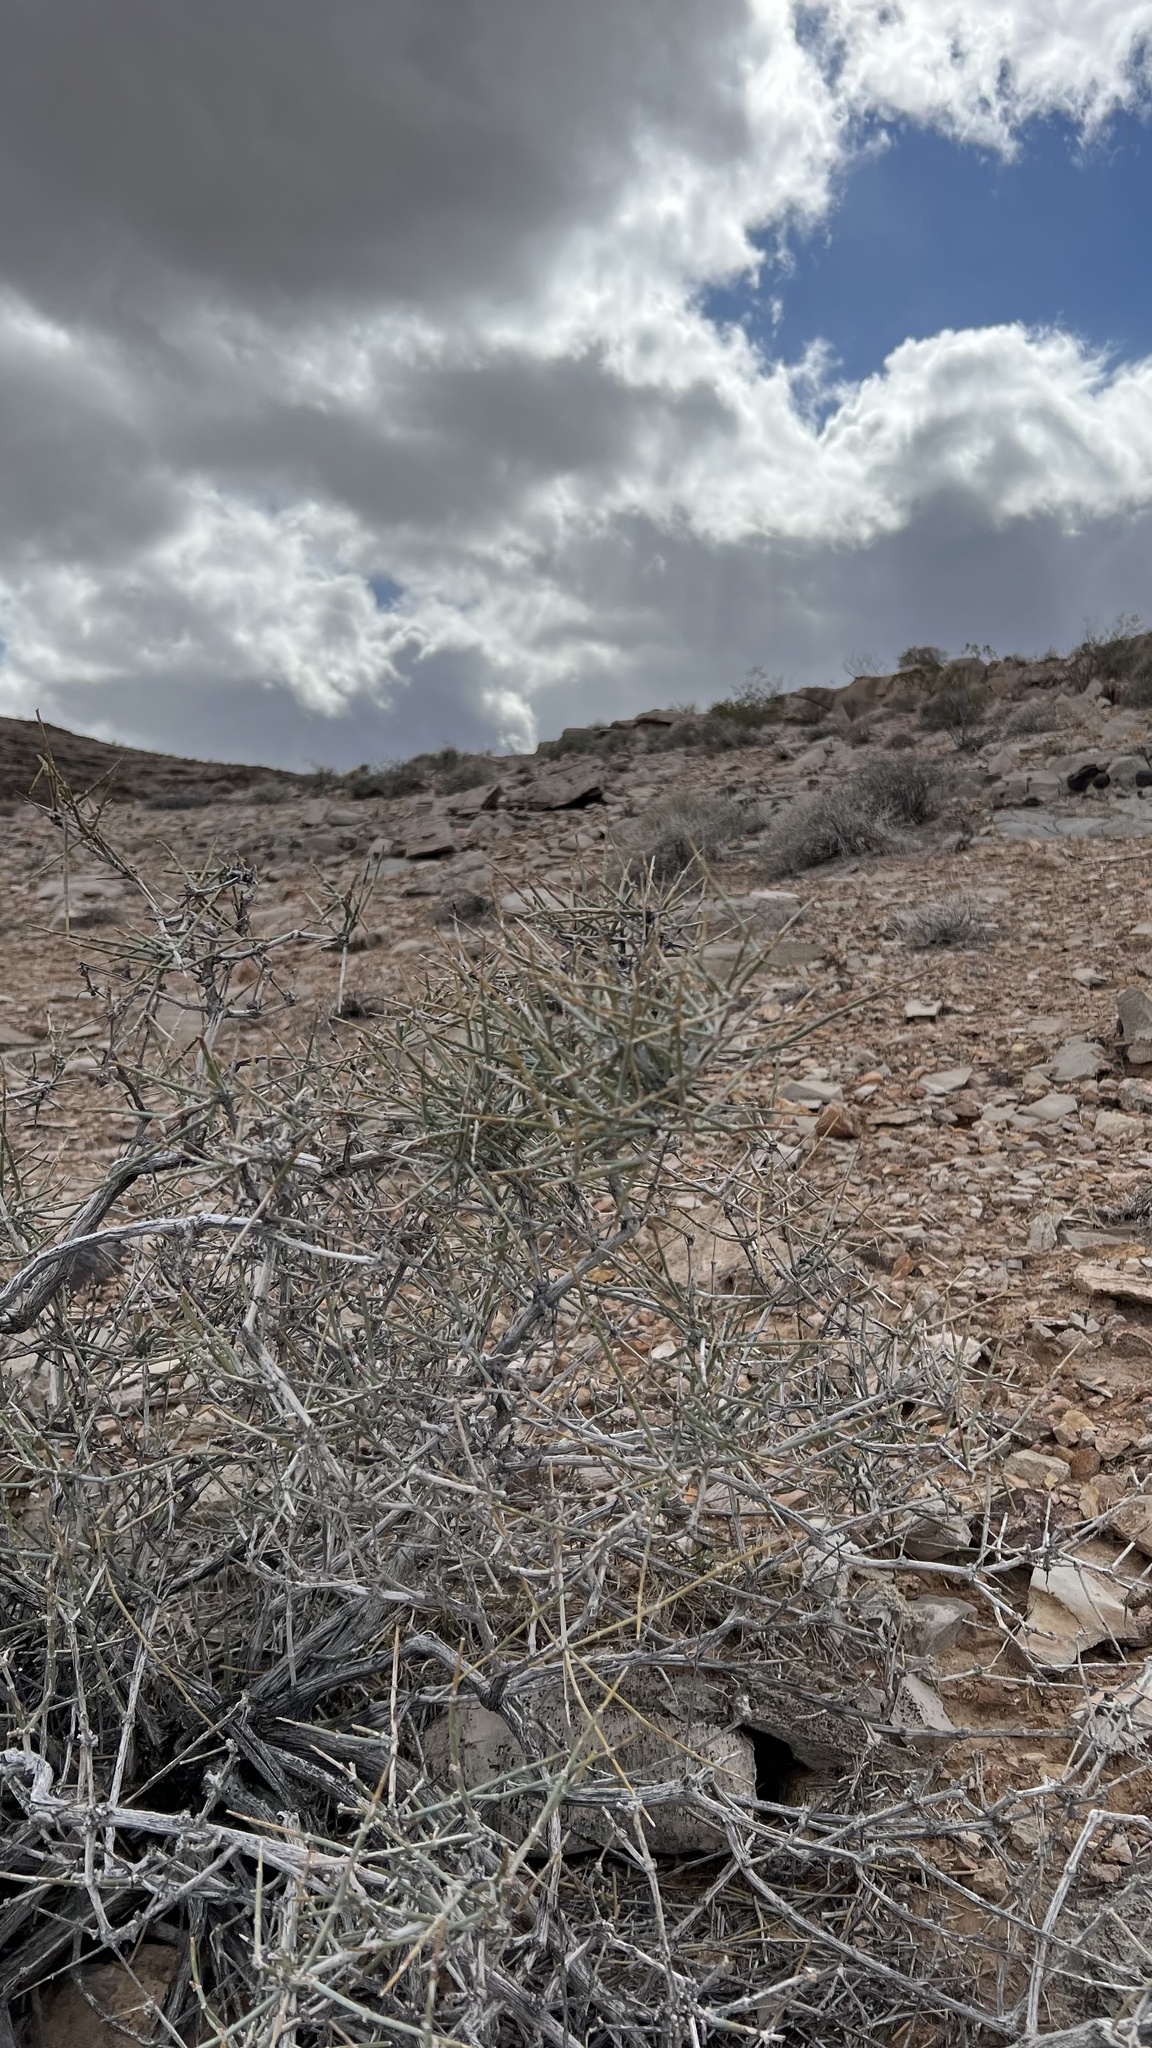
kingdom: Plantae
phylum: Tracheophyta
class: Gnetopsida
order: Ephedrales
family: Ephedraceae
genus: Ephedra
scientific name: Ephedra nevadensis
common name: Gray ephedra
